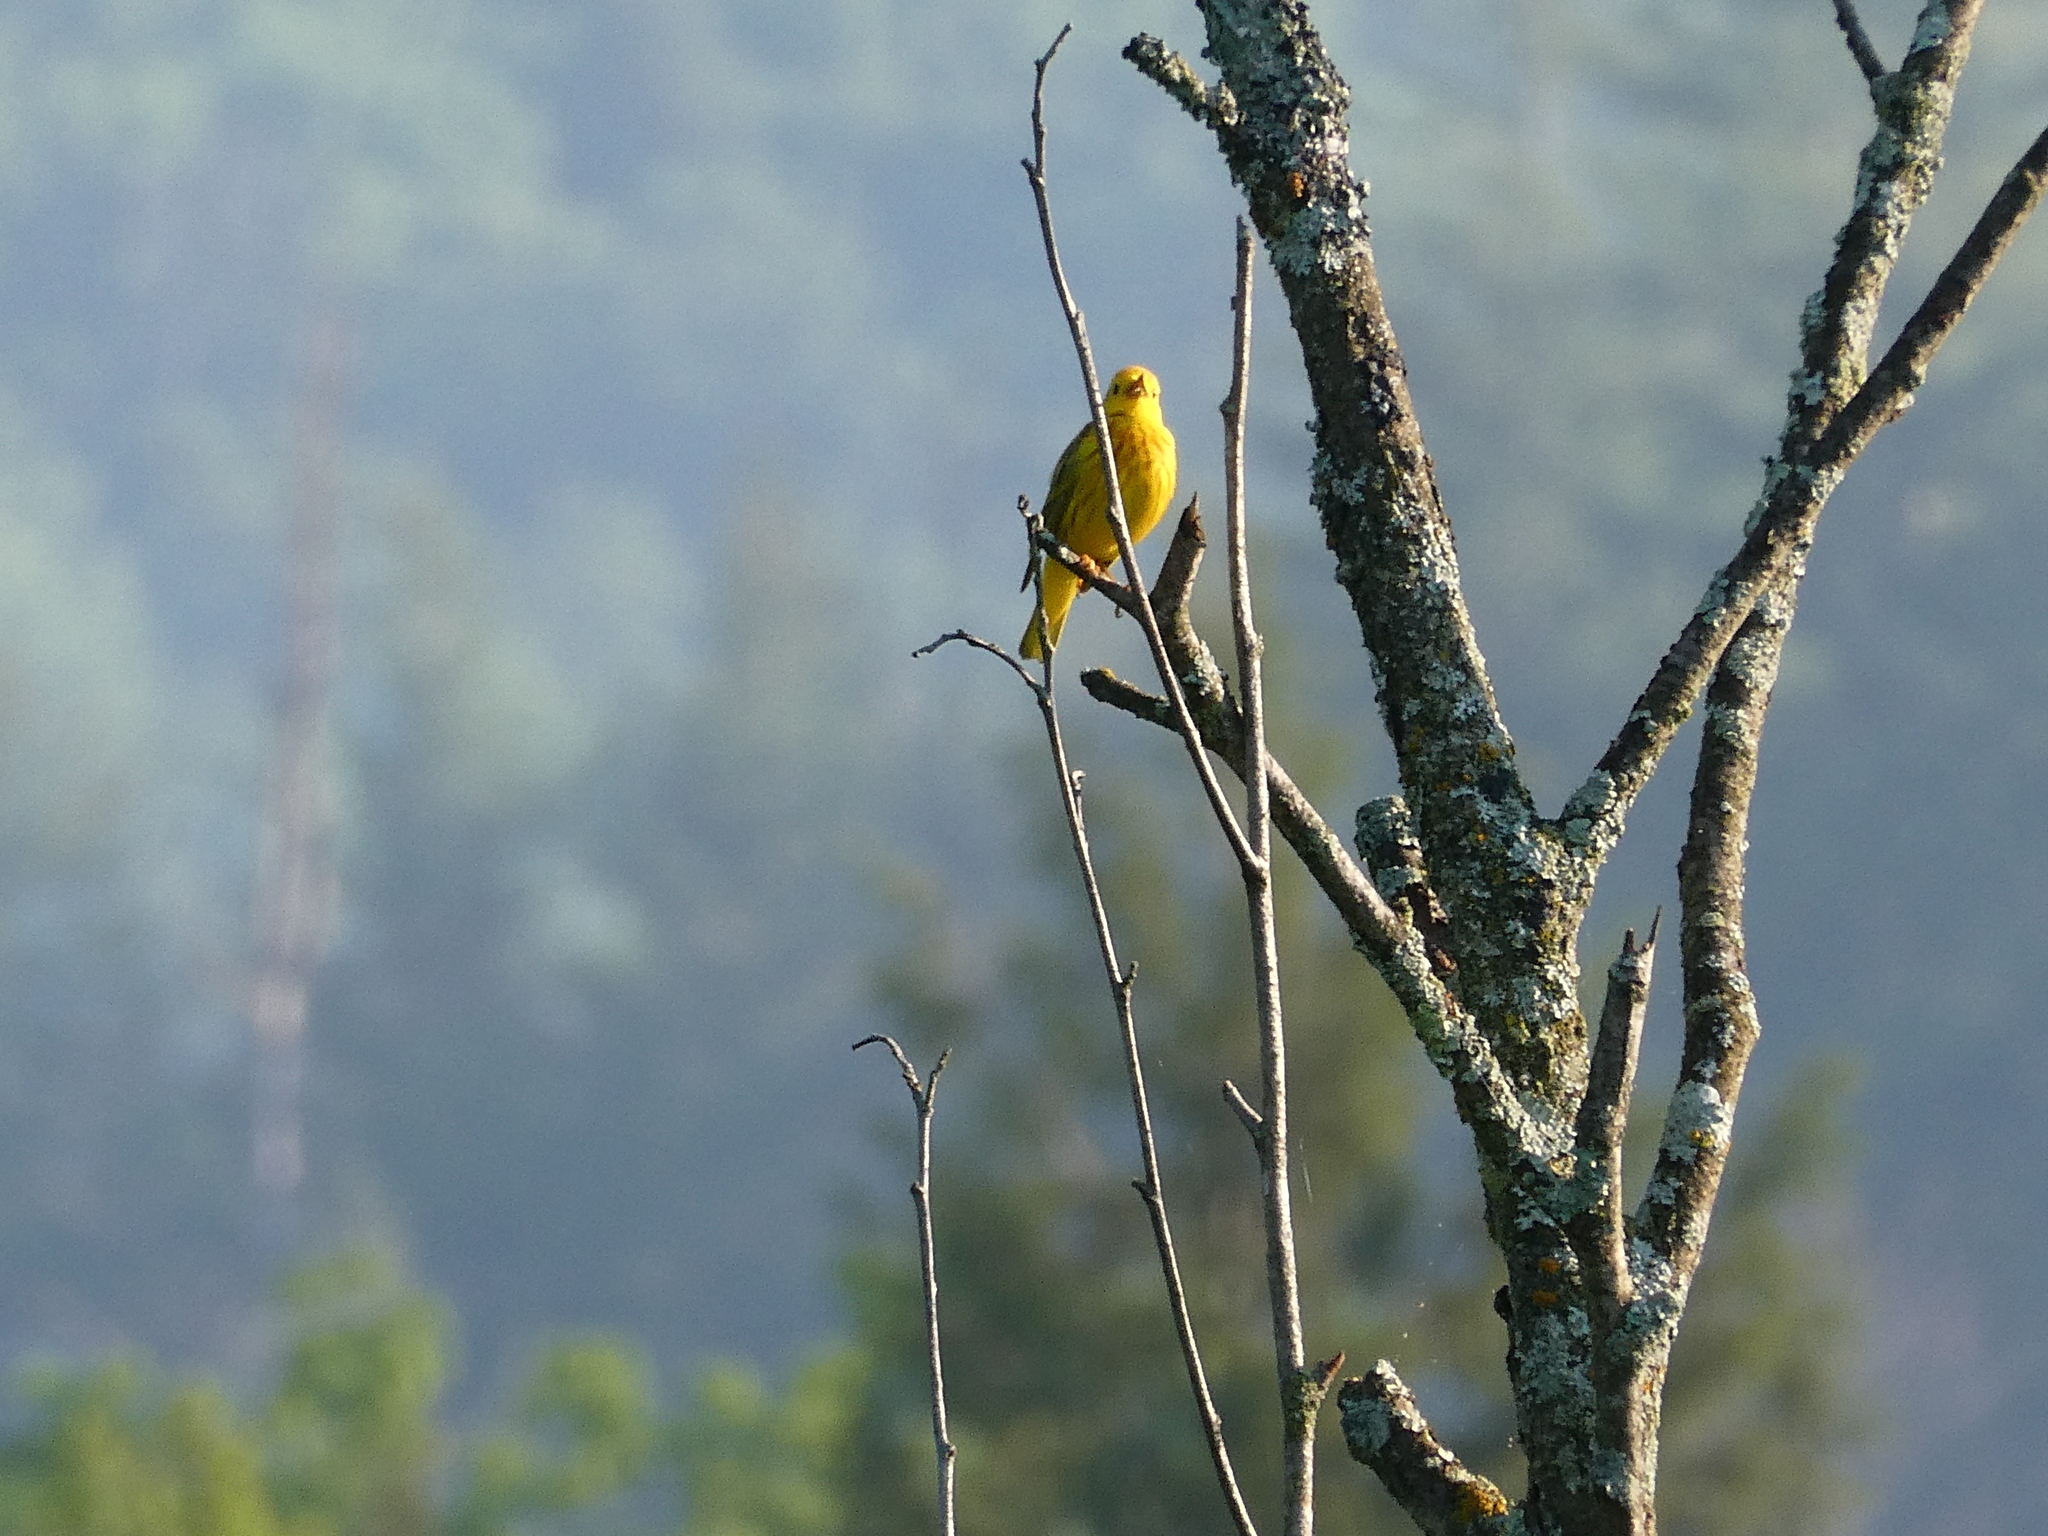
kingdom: Animalia
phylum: Chordata
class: Aves
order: Passeriformes
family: Parulidae
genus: Setophaga
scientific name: Setophaga petechia
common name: Yellow warbler
